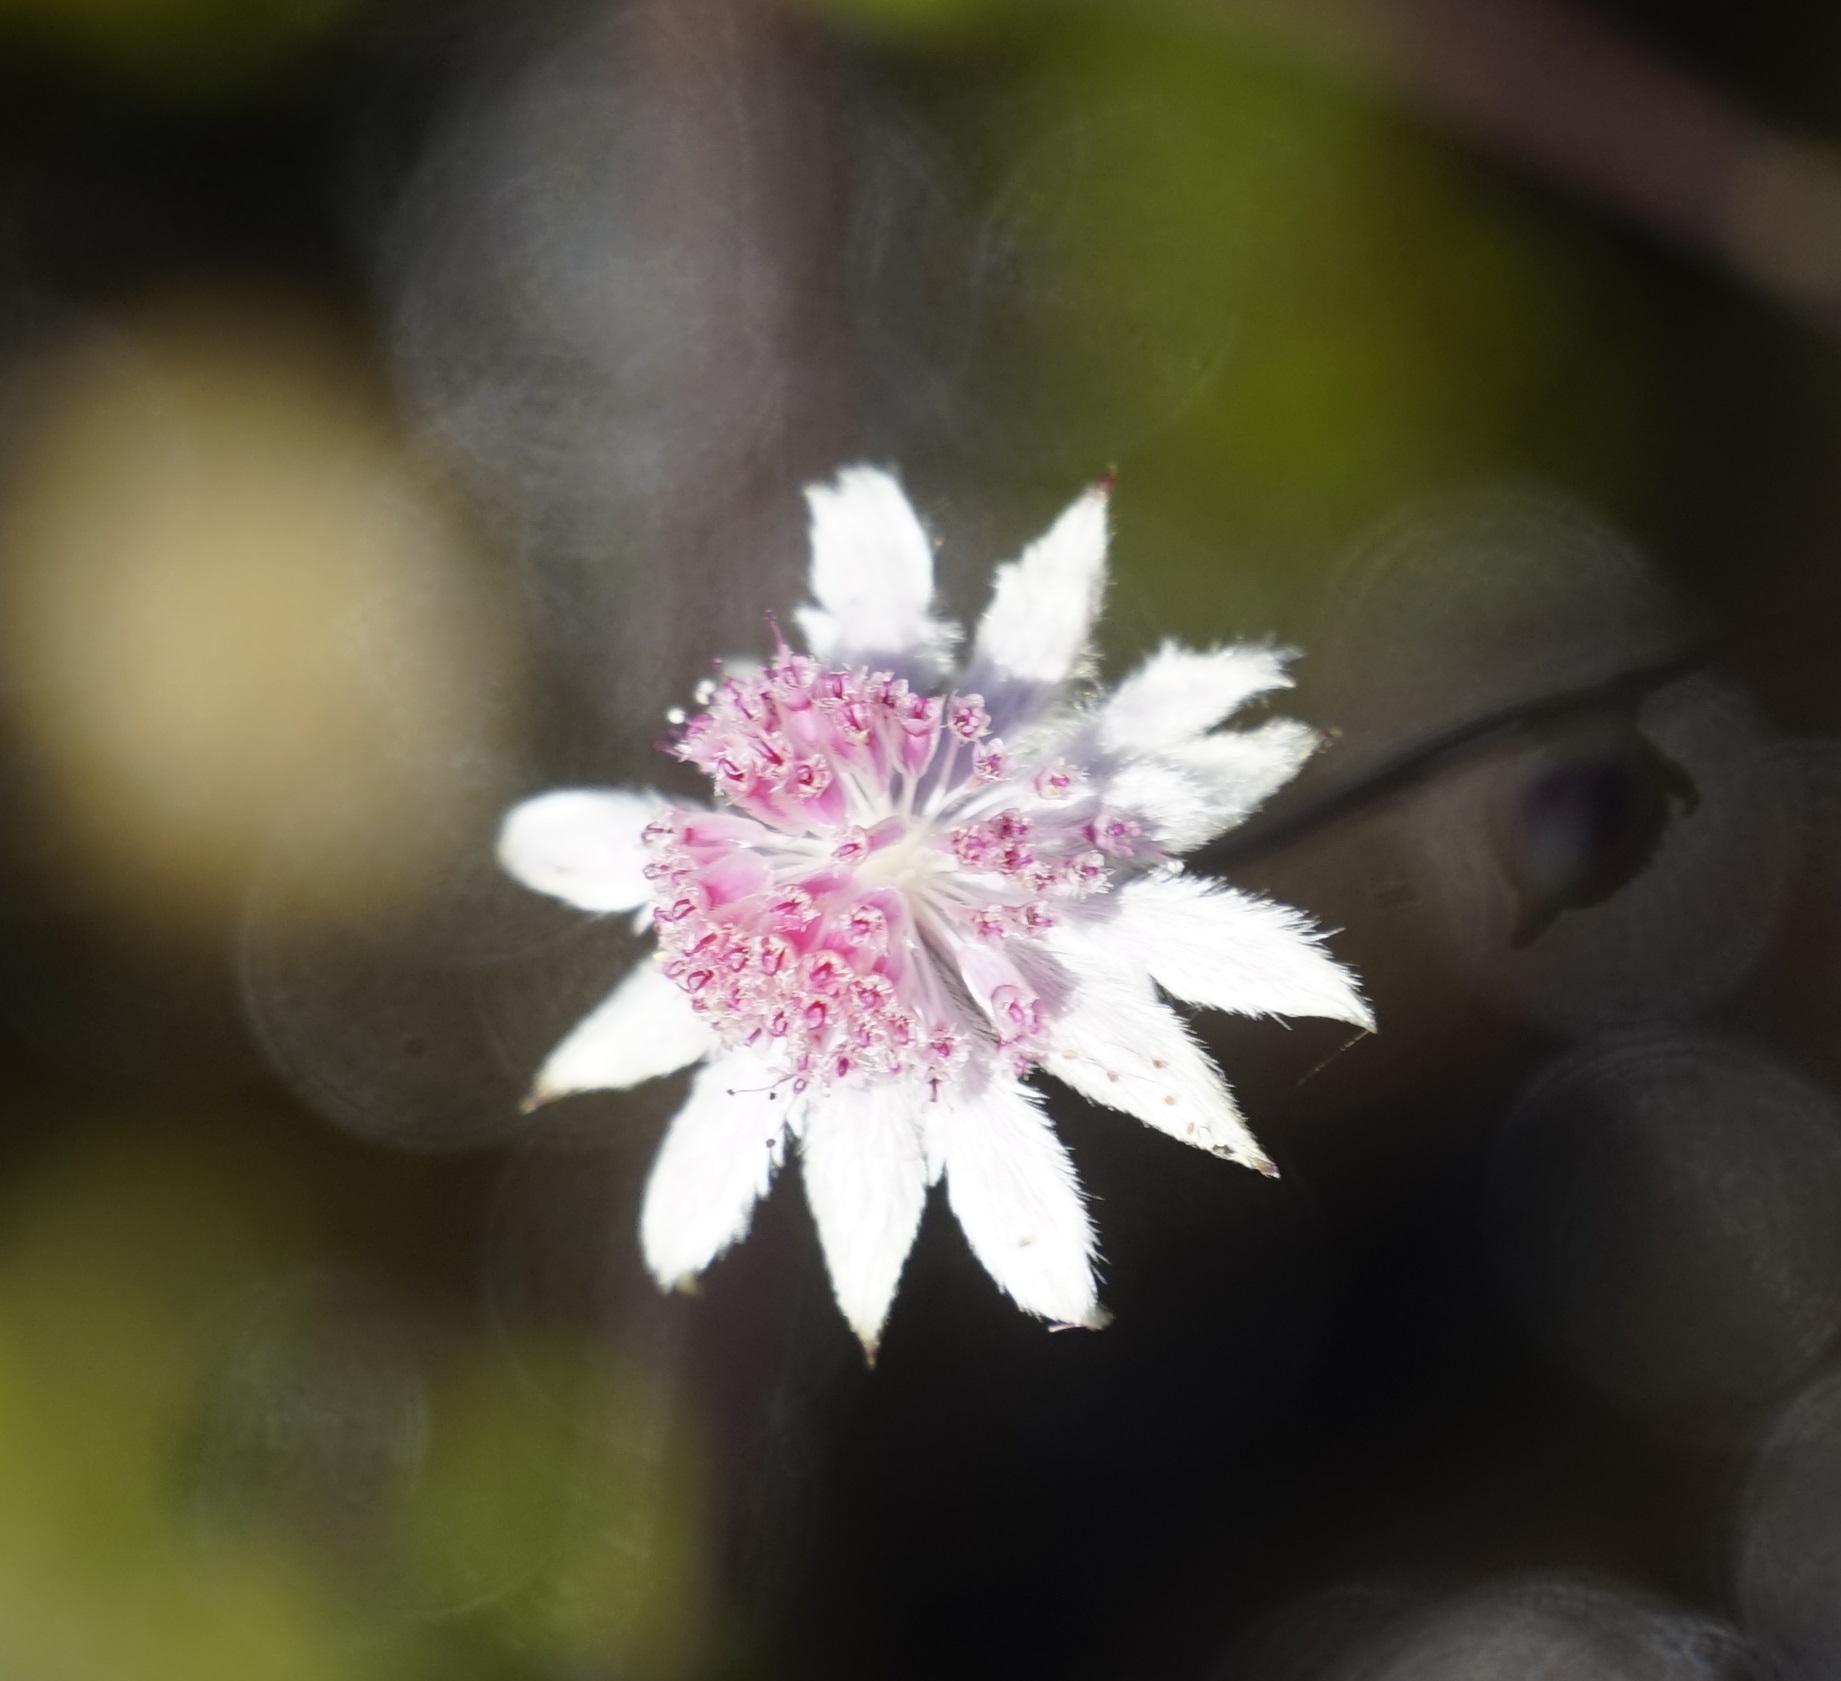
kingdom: Plantae
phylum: Tracheophyta
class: Magnoliopsida
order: Apiales
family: Apiaceae
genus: Actinotus
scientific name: Actinotus forsythii
